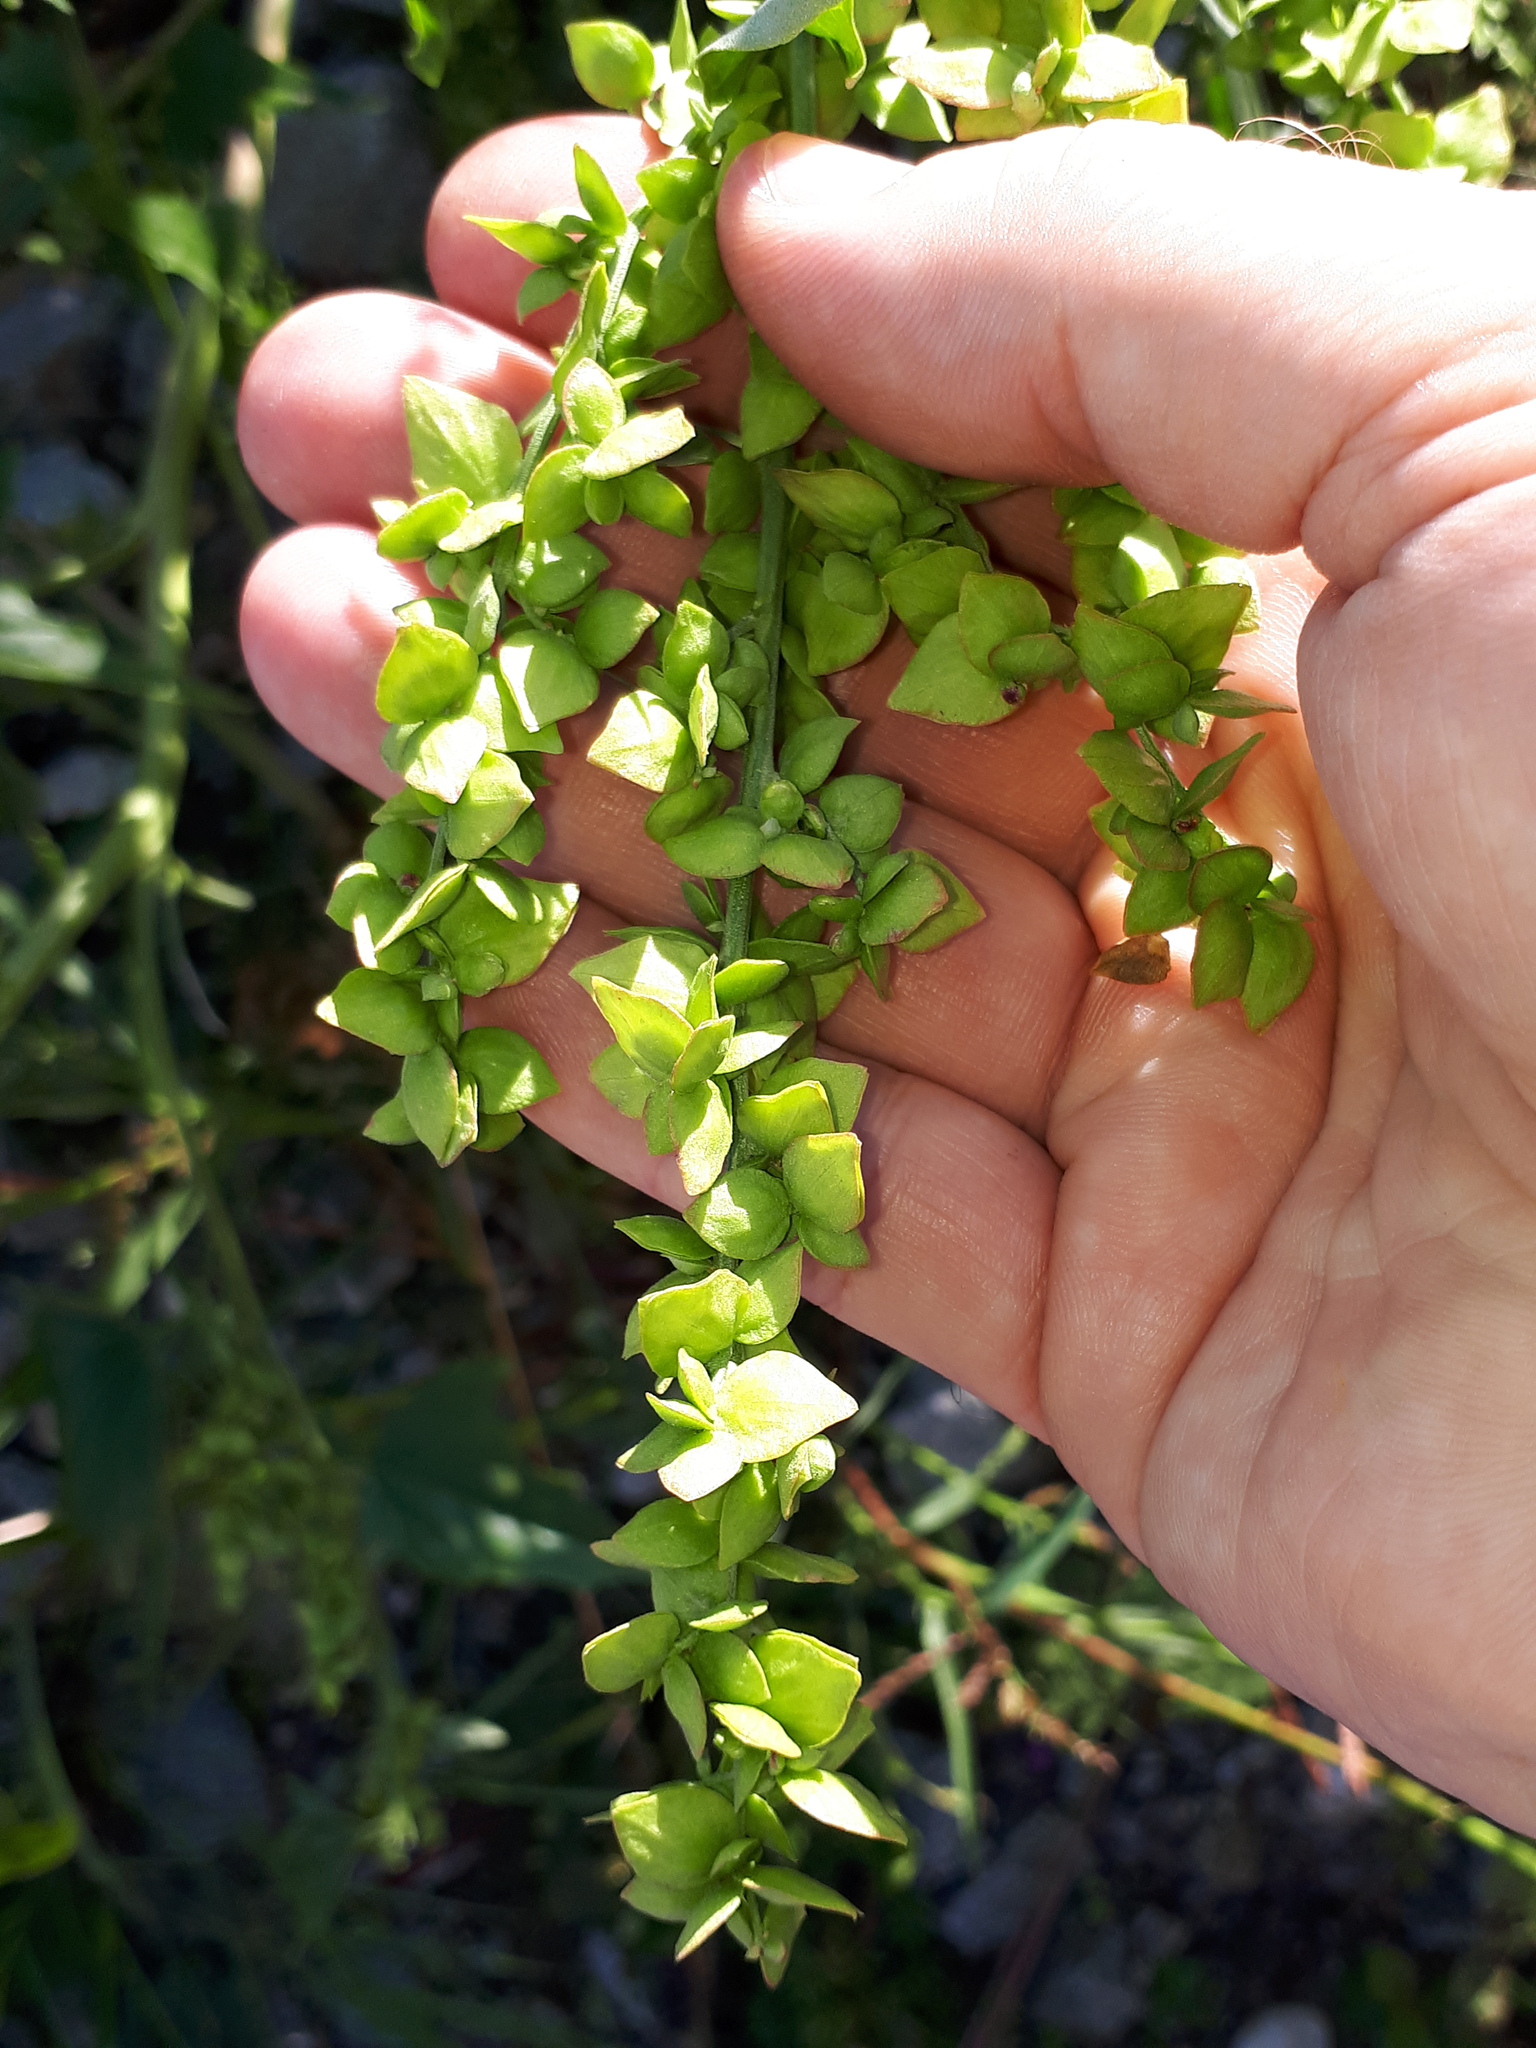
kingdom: Plantae
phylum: Tracheophyta
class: Magnoliopsida
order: Caryophyllales
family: Amaranthaceae
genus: Atriplex
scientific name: Atriplex sagittata
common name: Purple orache
